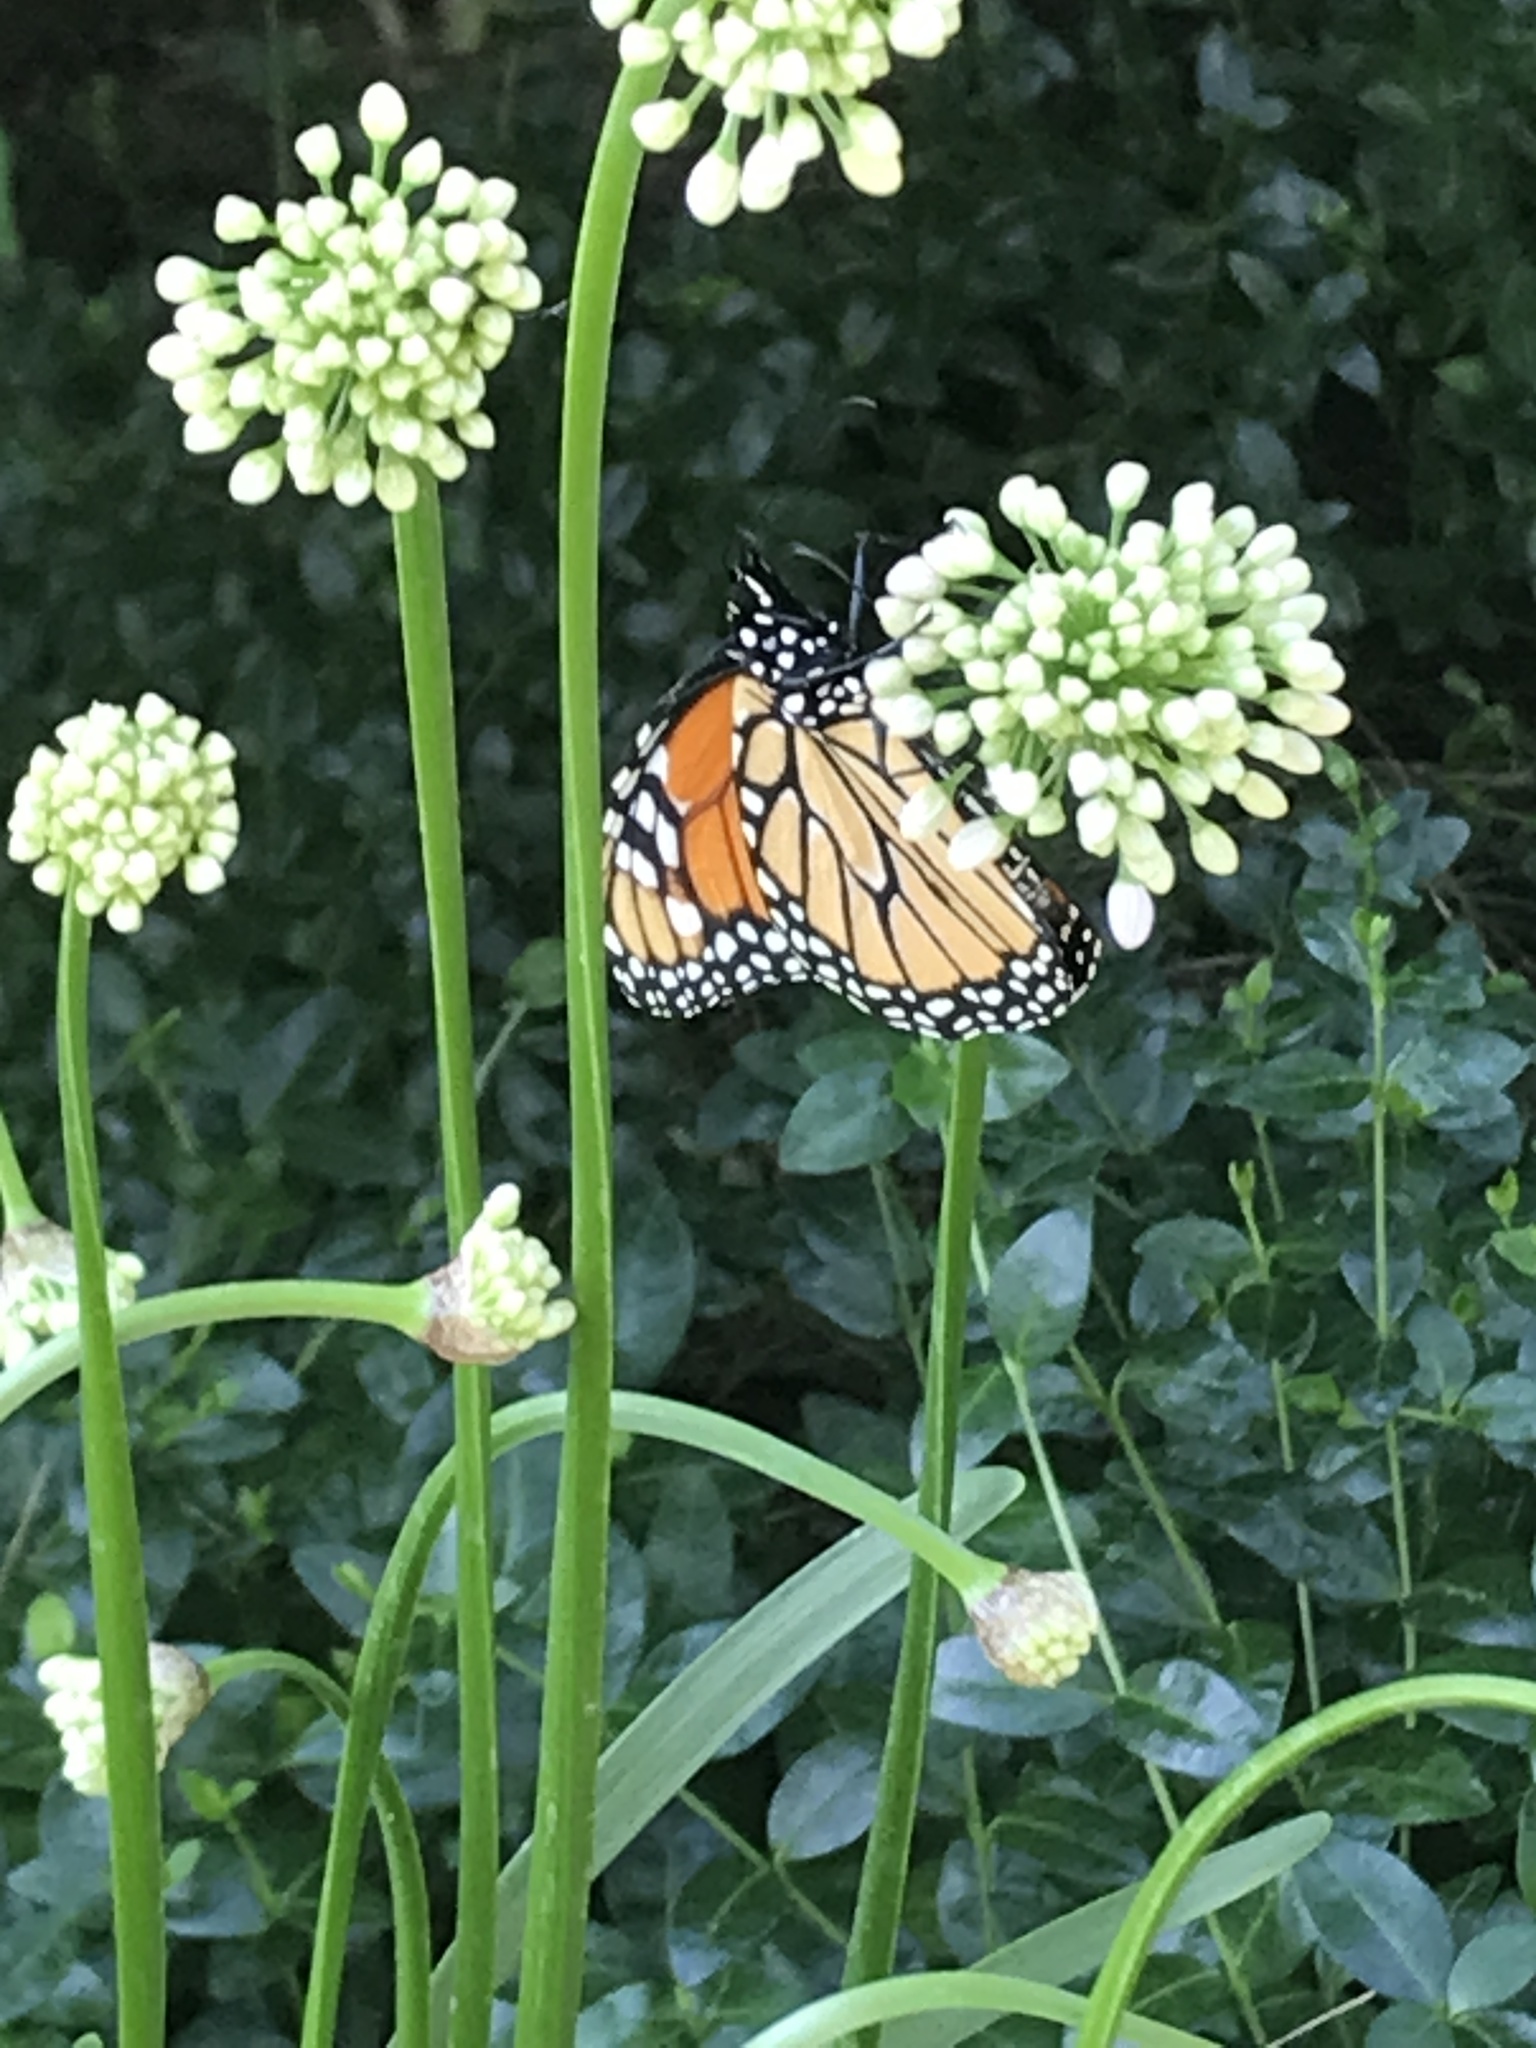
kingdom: Animalia
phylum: Arthropoda
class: Insecta
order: Lepidoptera
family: Nymphalidae
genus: Danaus
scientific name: Danaus plexippus
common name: Monarch
